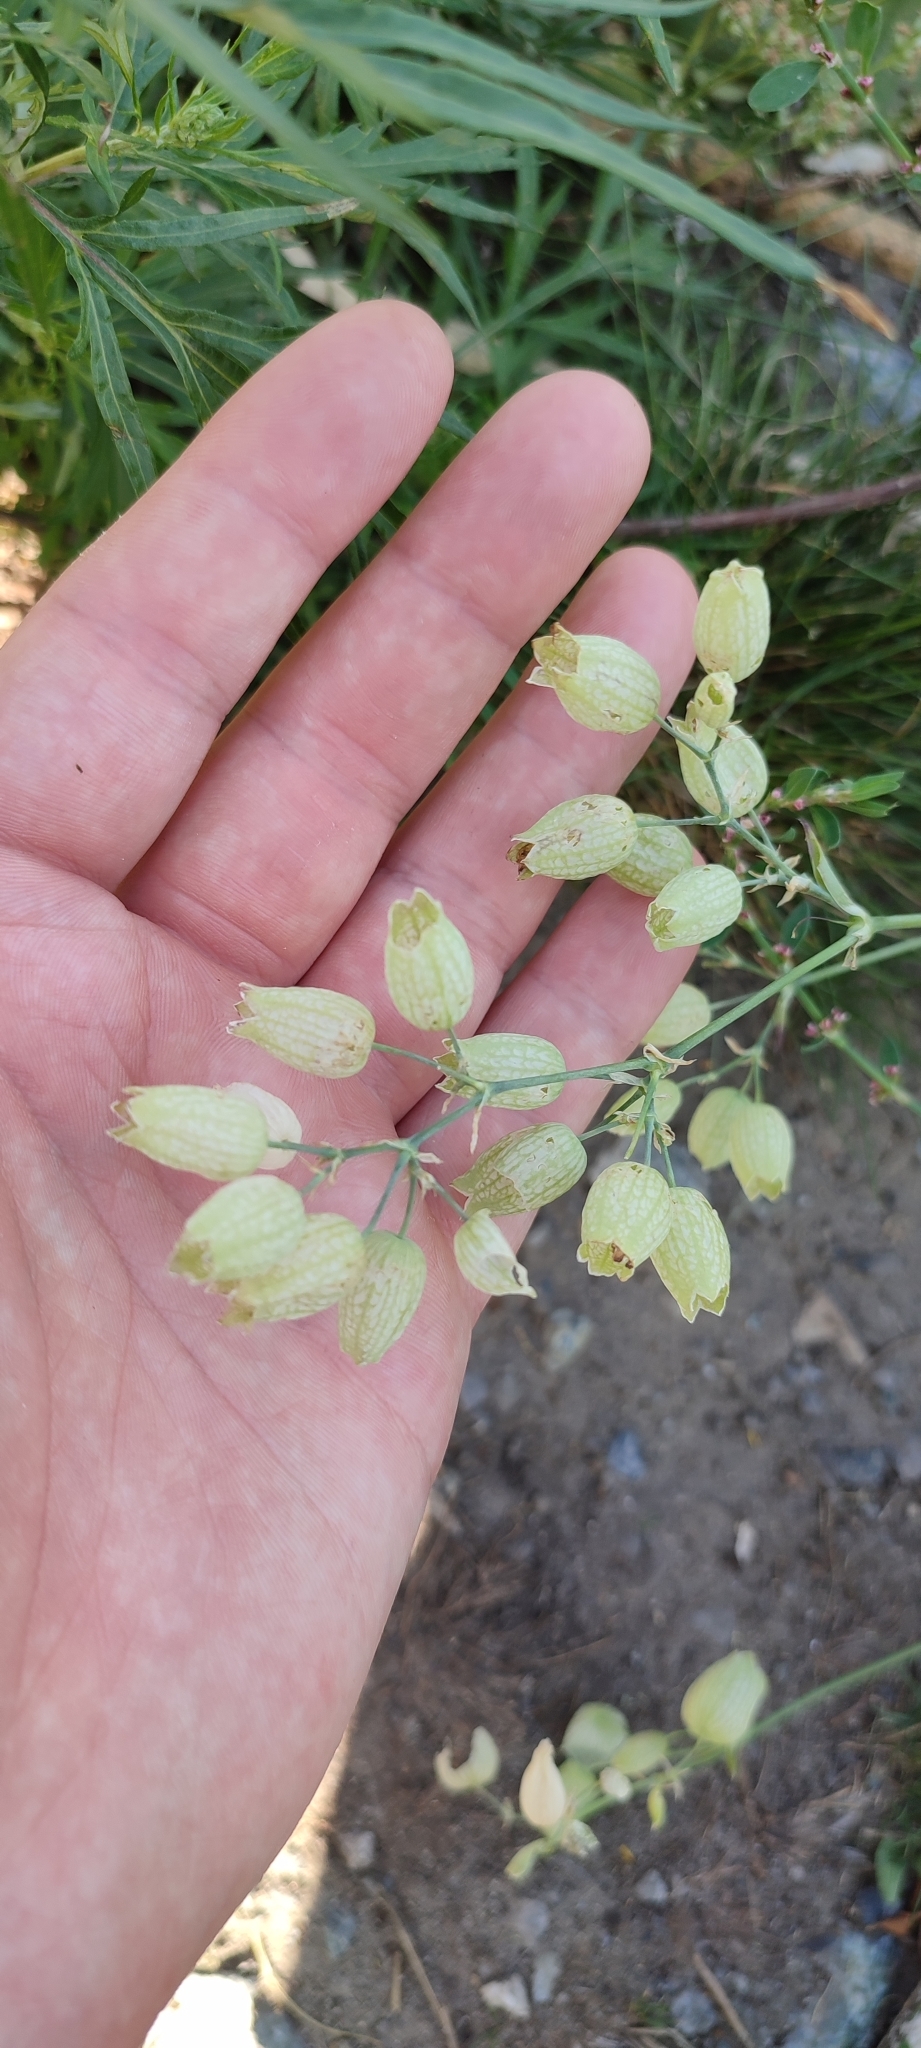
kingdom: Plantae
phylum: Tracheophyta
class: Magnoliopsida
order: Caryophyllales
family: Caryophyllaceae
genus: Silene
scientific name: Silene vulgaris
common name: Bladder campion
